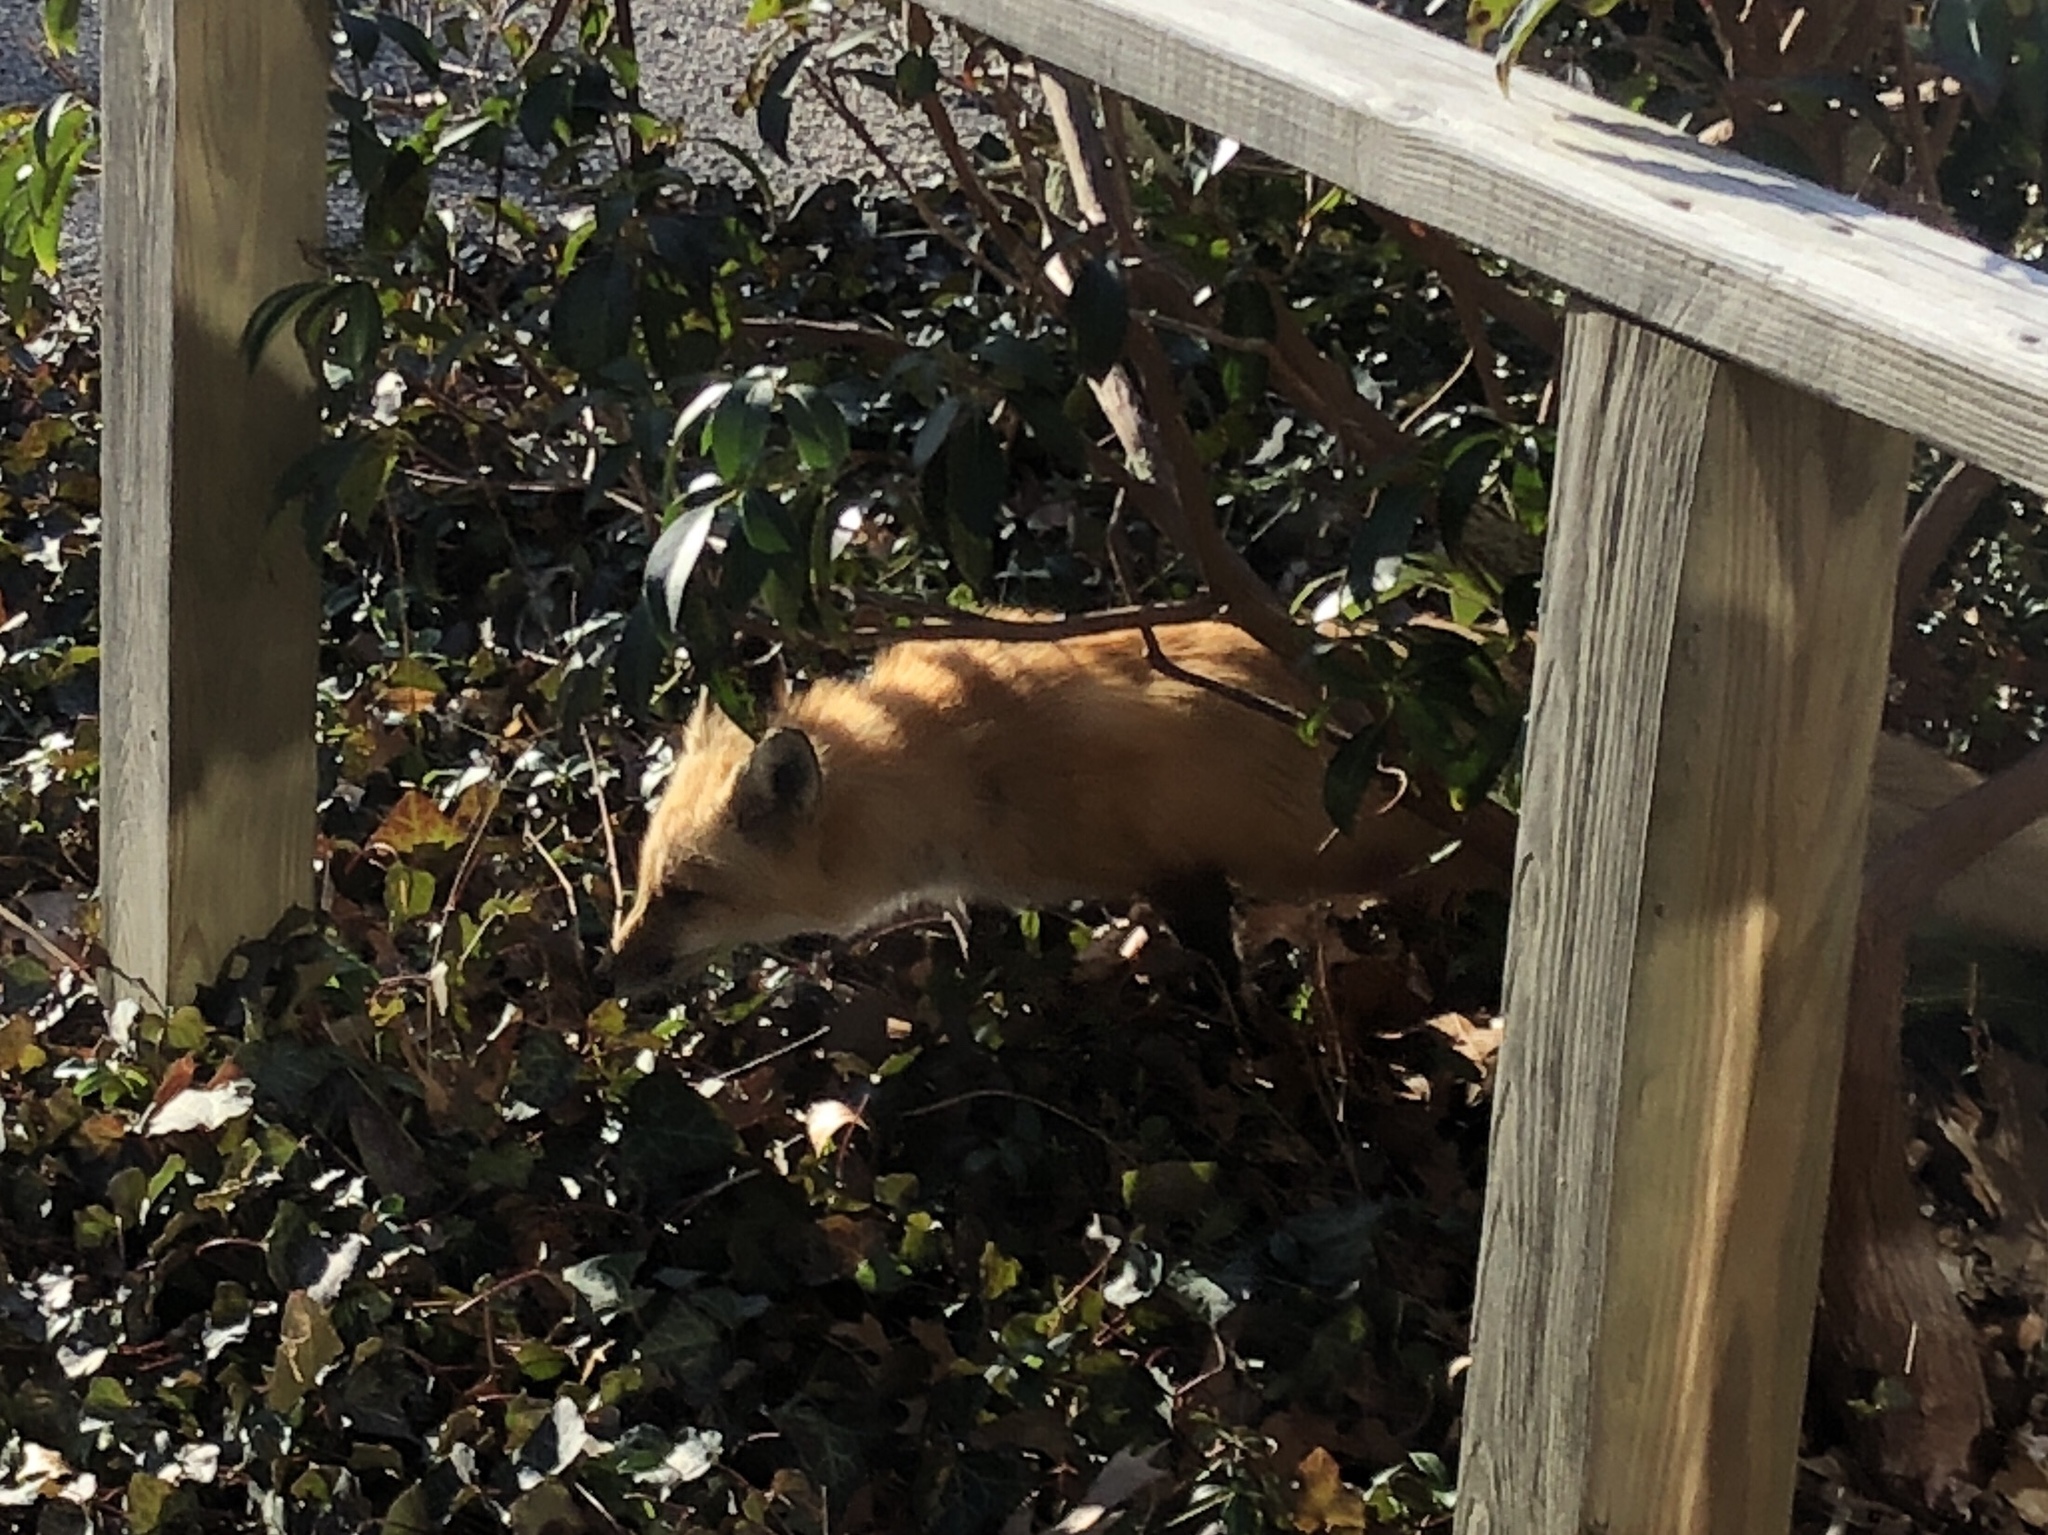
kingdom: Animalia
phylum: Chordata
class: Mammalia
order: Carnivora
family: Canidae
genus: Vulpes
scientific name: Vulpes vulpes
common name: Red fox
